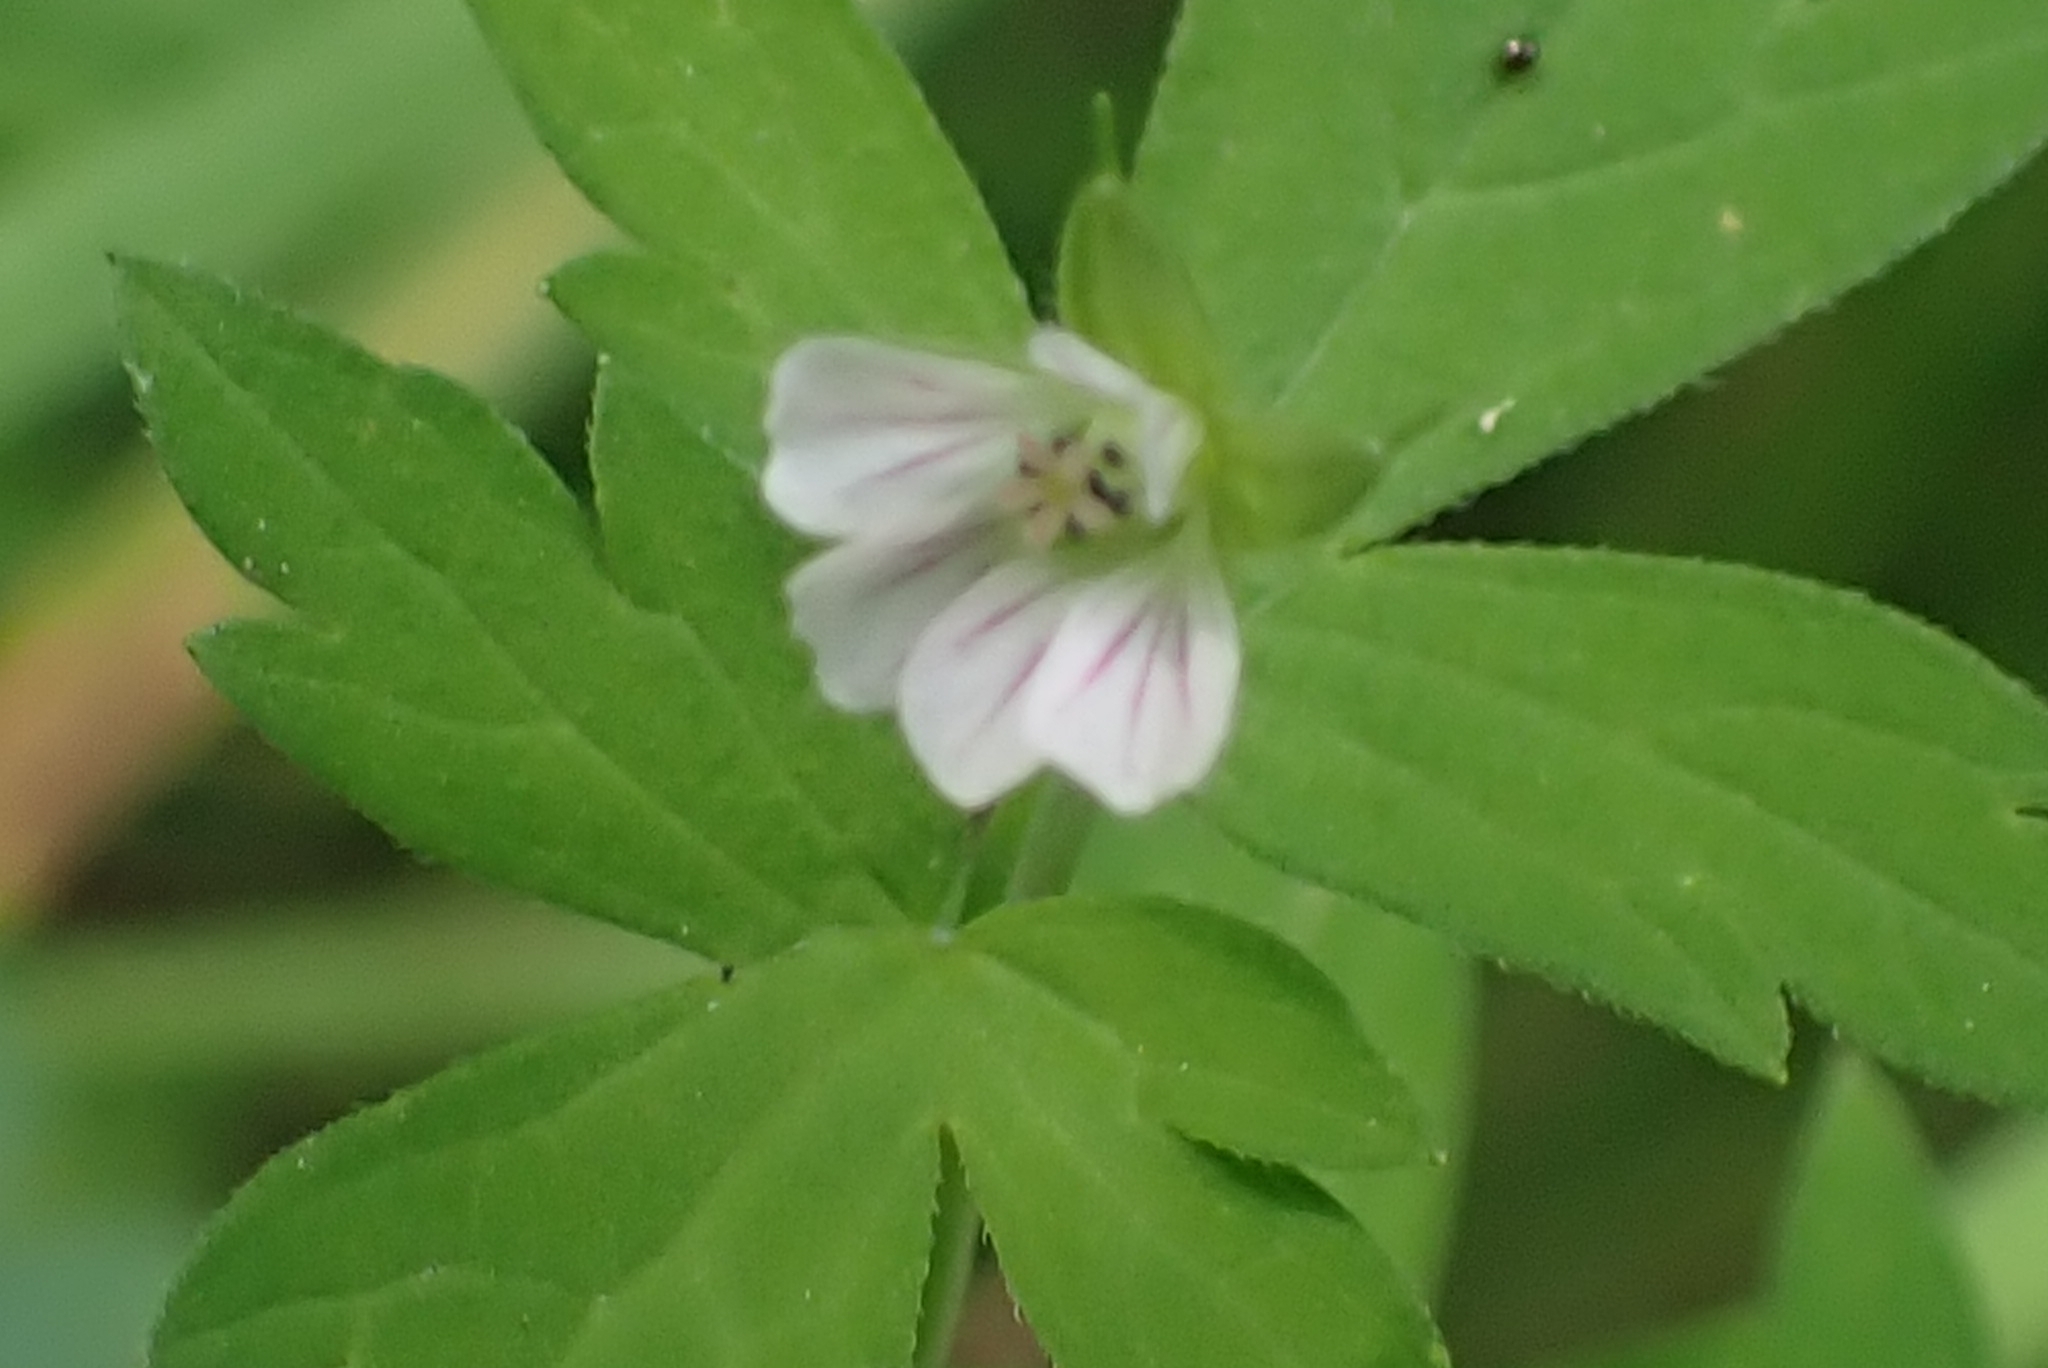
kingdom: Plantae
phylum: Tracheophyta
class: Magnoliopsida
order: Geraniales
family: Geraniaceae
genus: Geranium
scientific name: Geranium sibiricum
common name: Siberian crane's-bill
